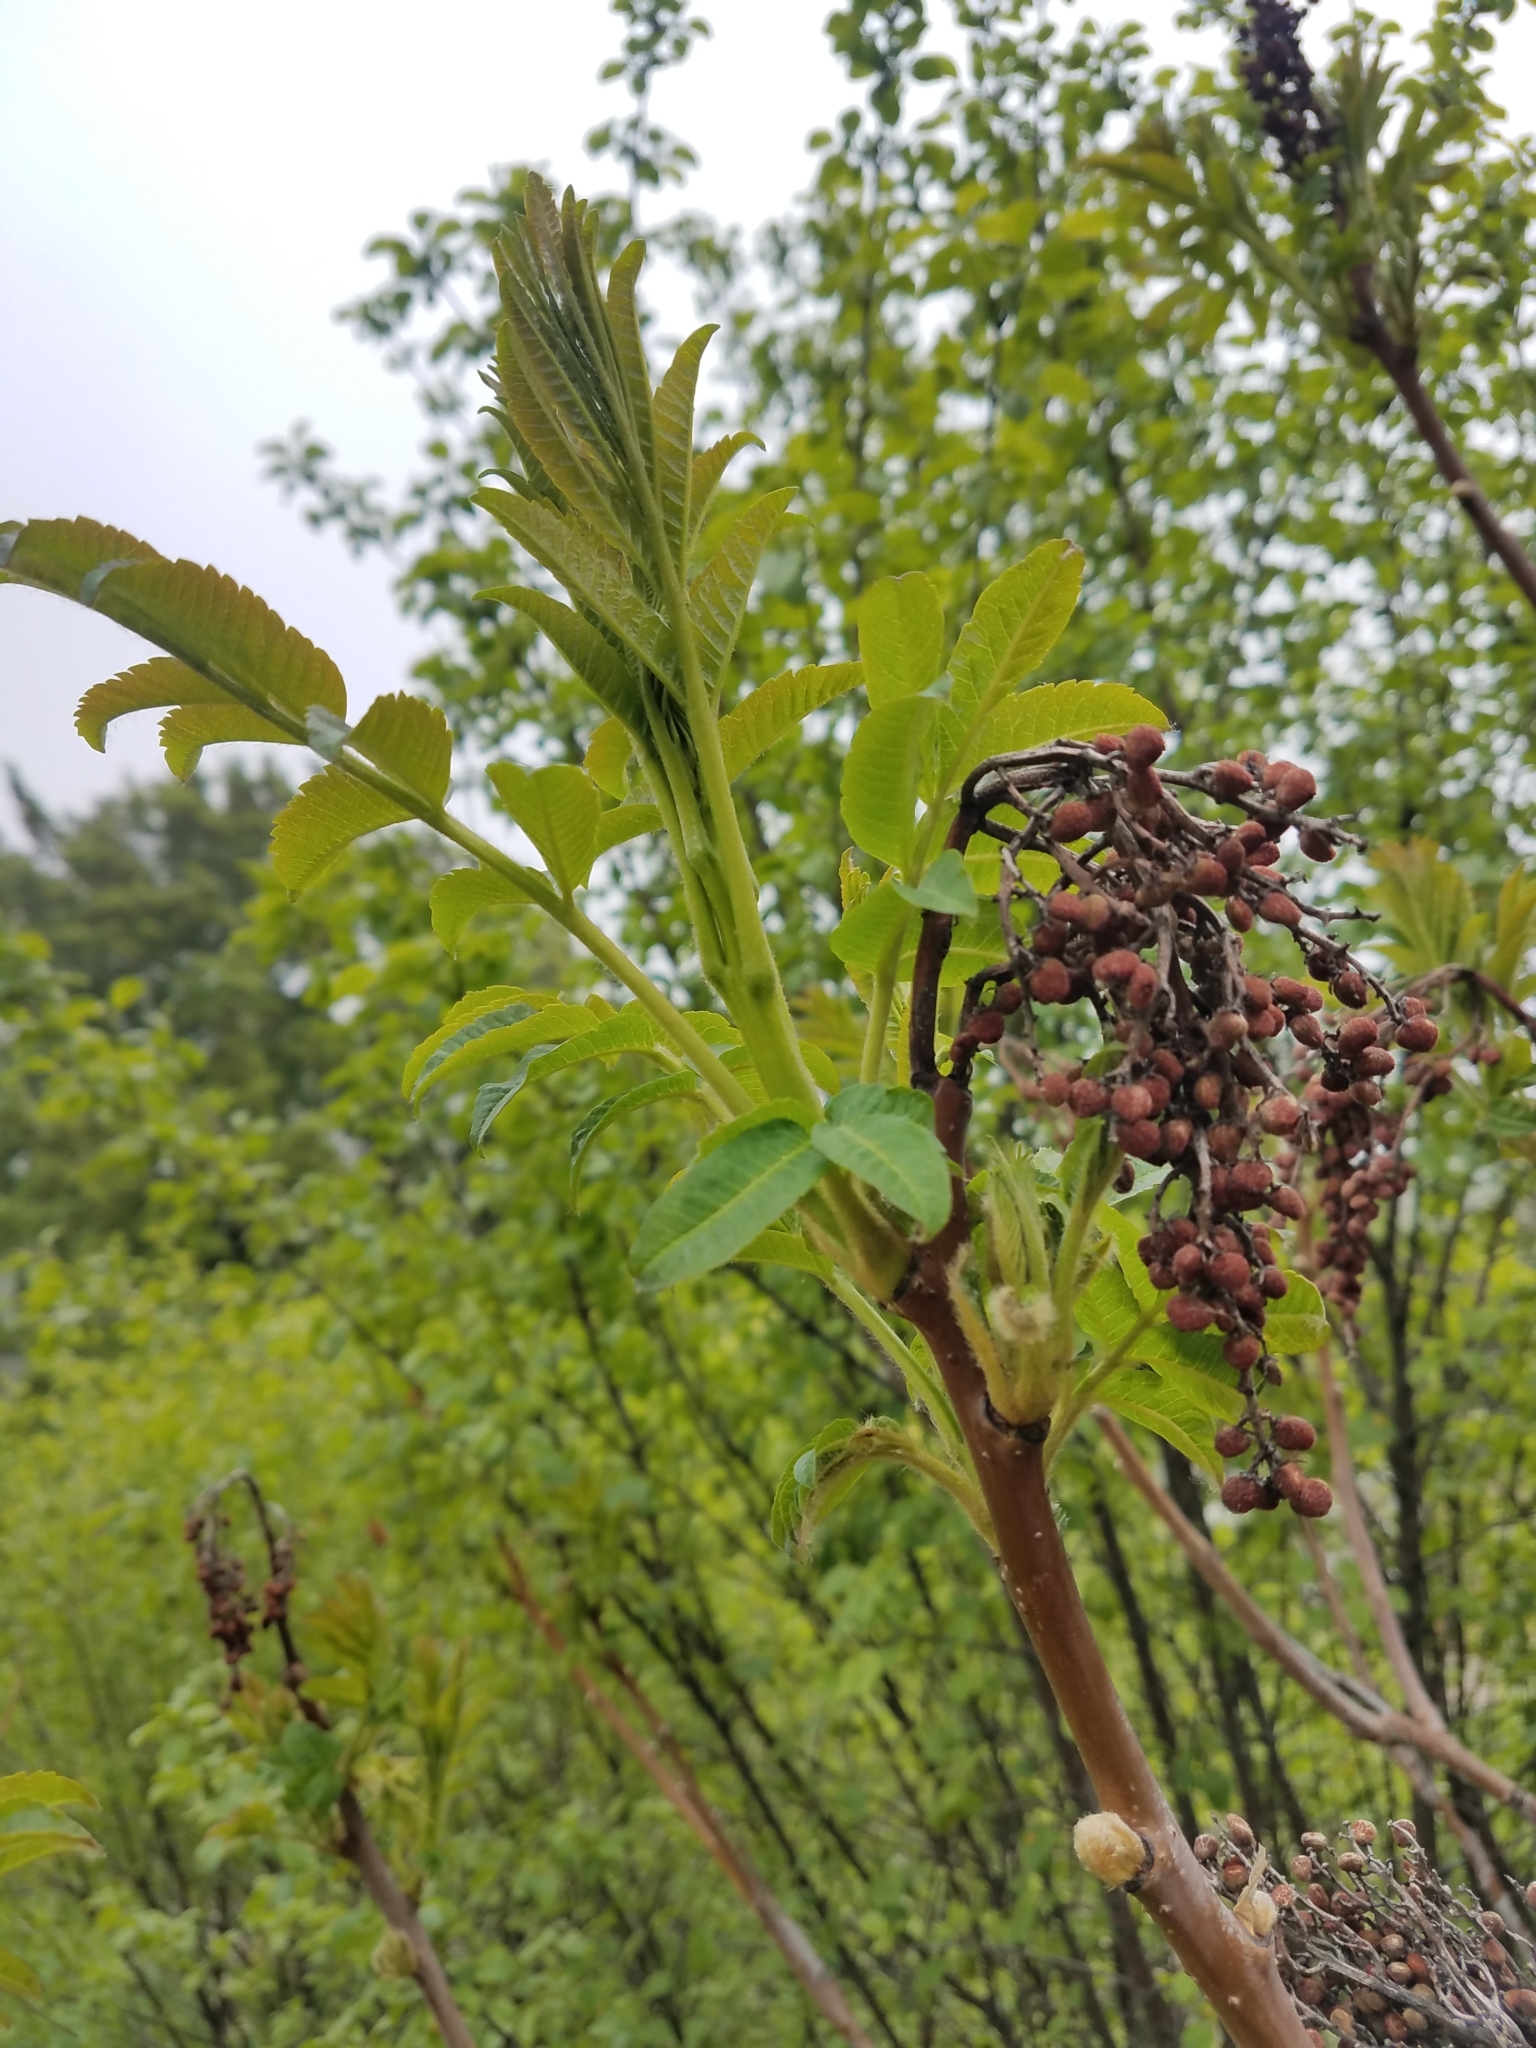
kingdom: Plantae
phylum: Tracheophyta
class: Magnoliopsida
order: Sapindales
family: Anacardiaceae
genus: Rhus
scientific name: Rhus glabra
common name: Scarlet sumac
